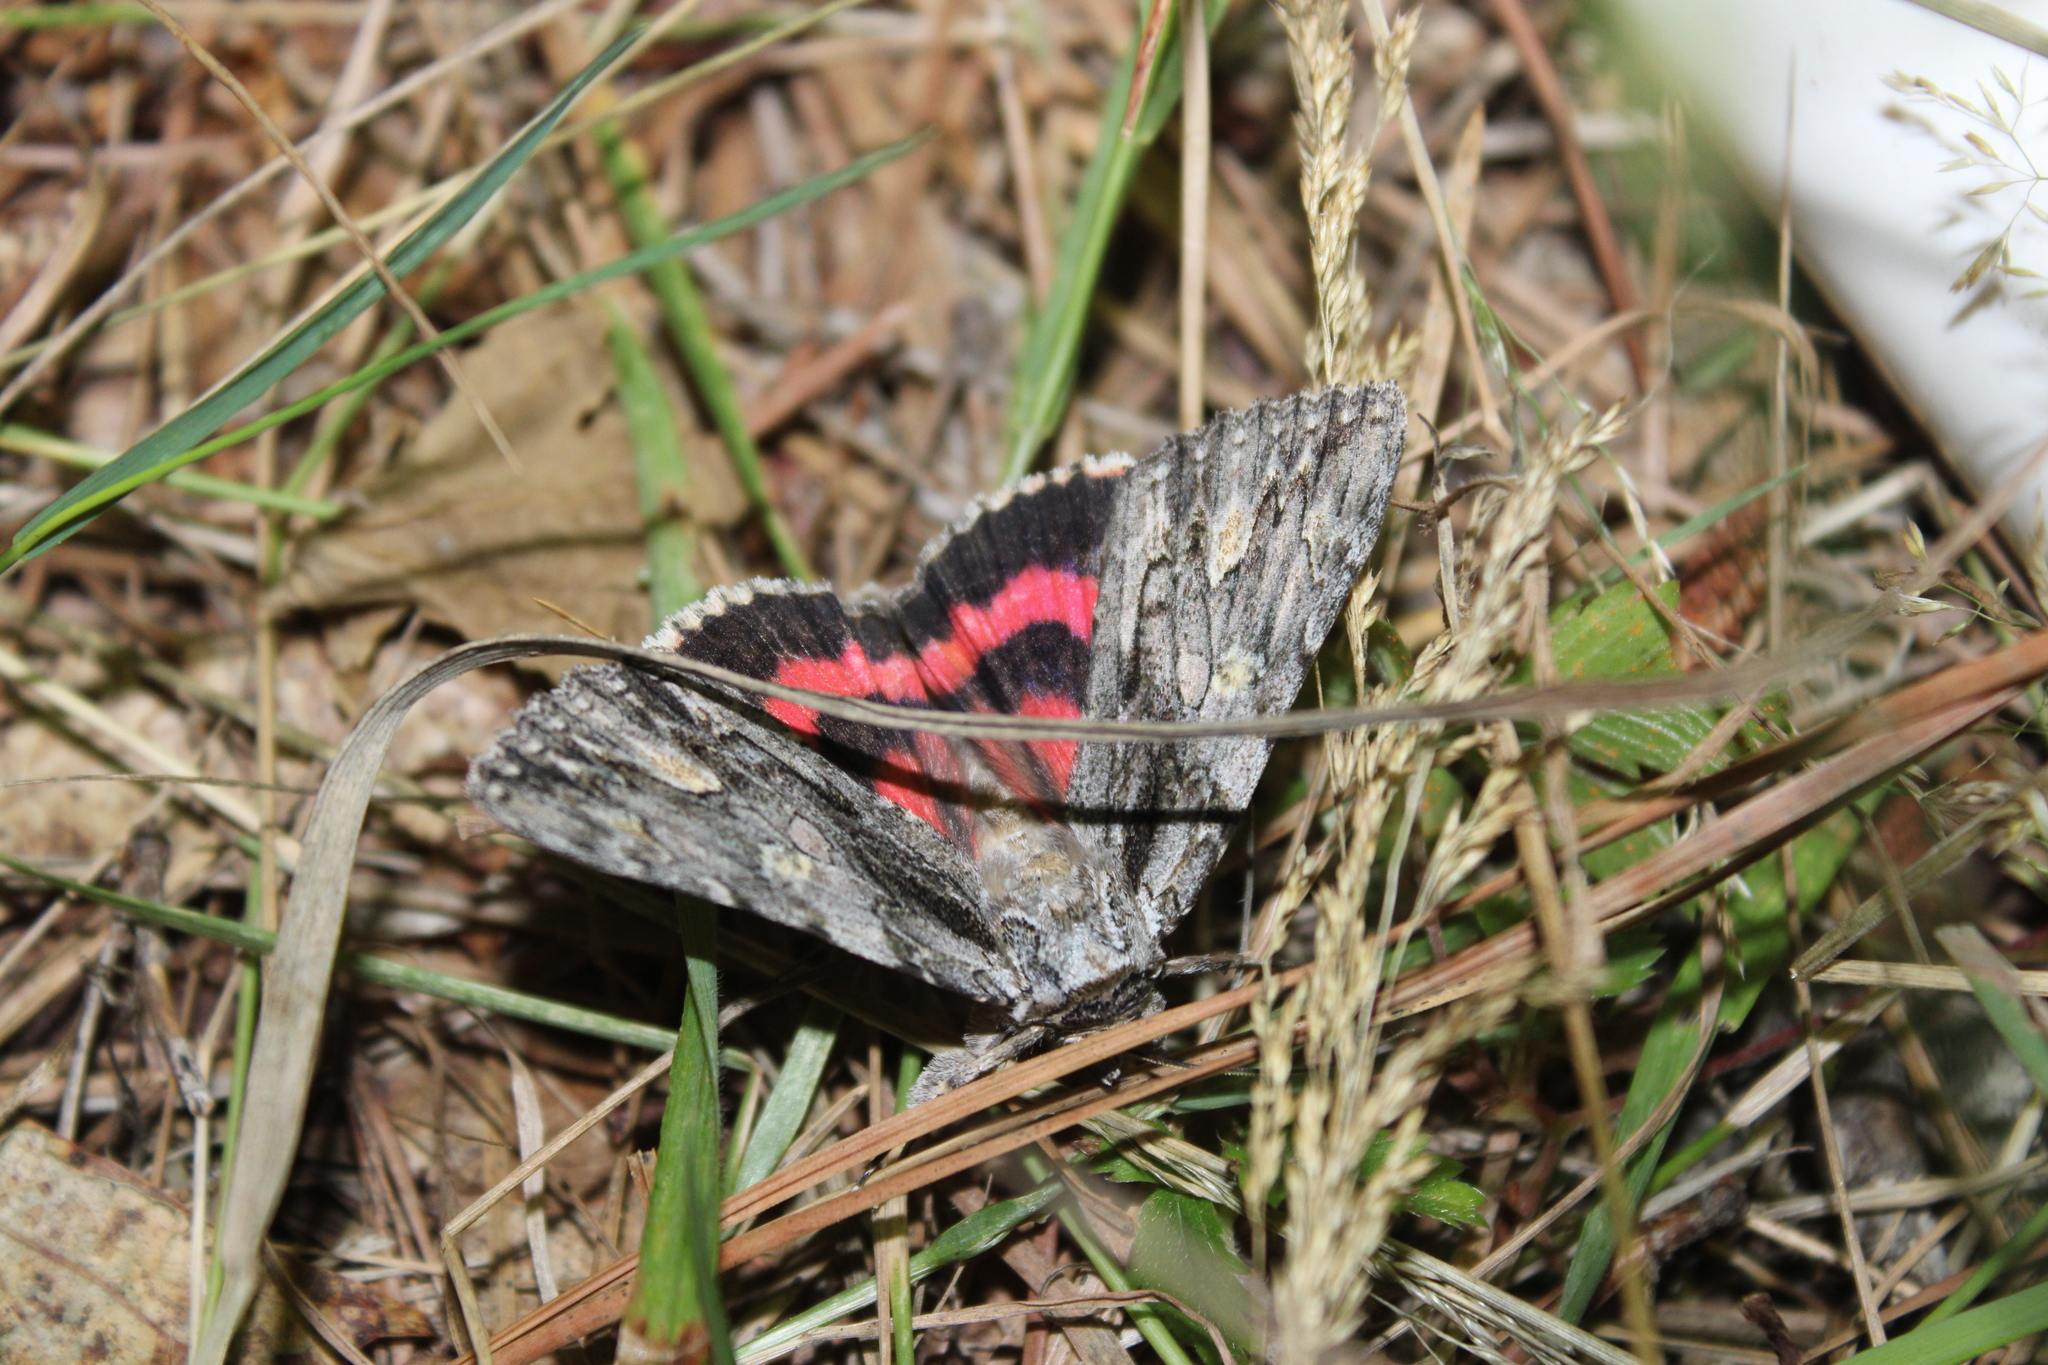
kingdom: Animalia
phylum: Arthropoda
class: Insecta
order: Lepidoptera
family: Erebidae
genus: Catocala
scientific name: Catocala coccinata
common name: Scarlet underwing
